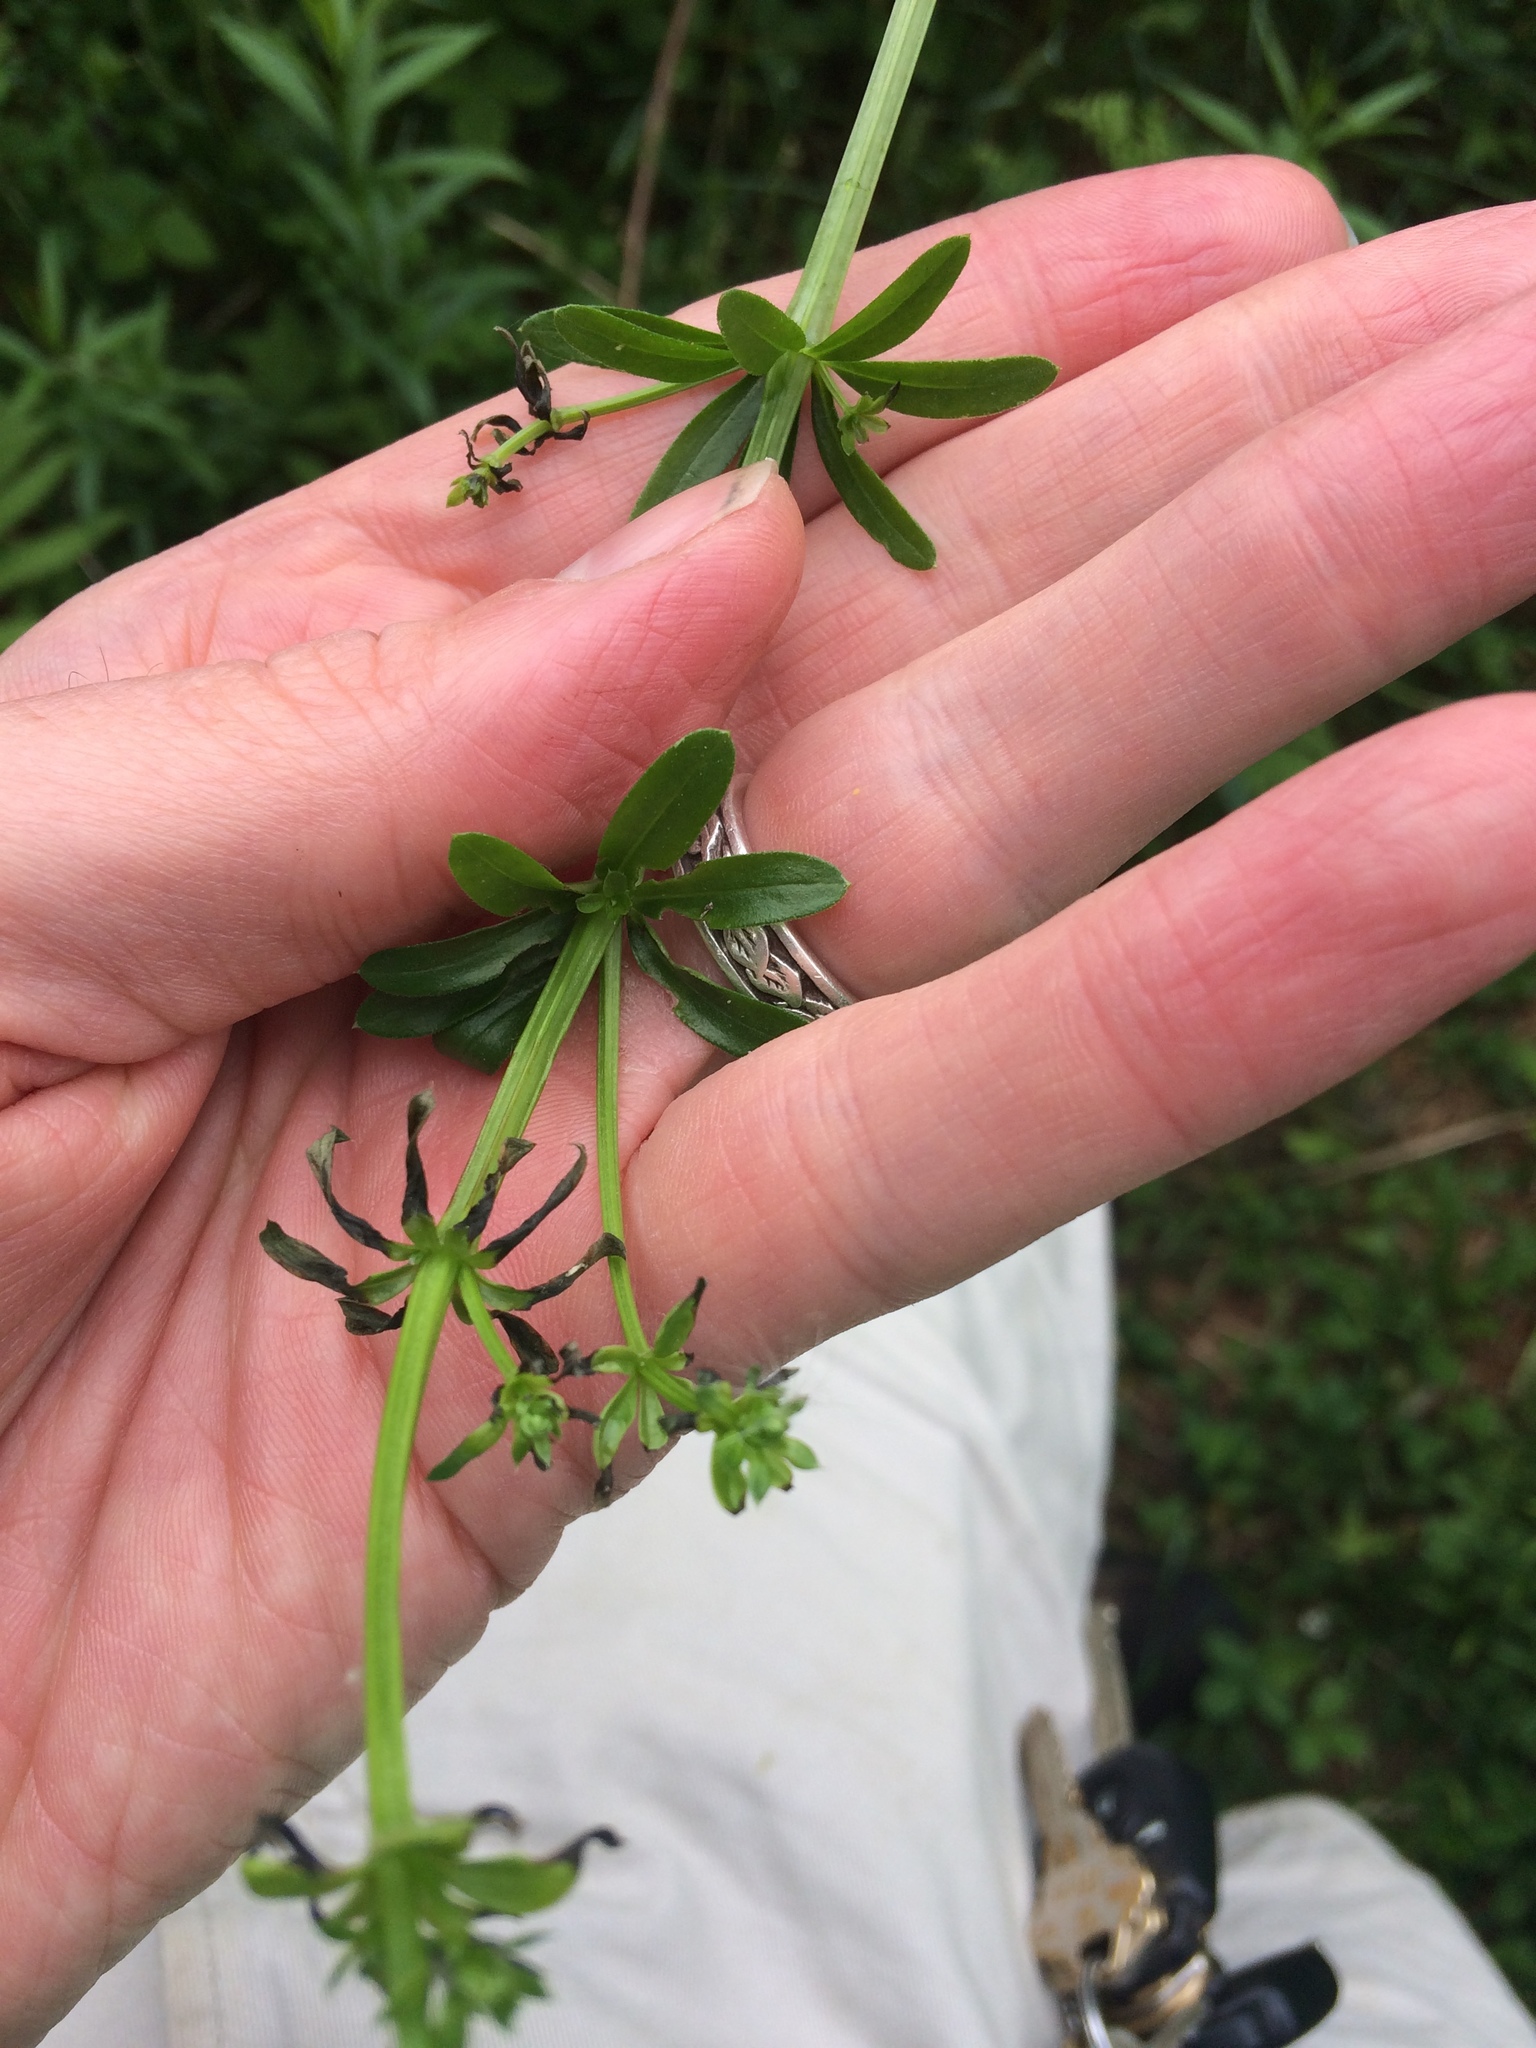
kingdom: Plantae
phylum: Tracheophyta
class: Magnoliopsida
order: Gentianales
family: Rubiaceae
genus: Galium
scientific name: Galium mollugo
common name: Hedge bedstraw
